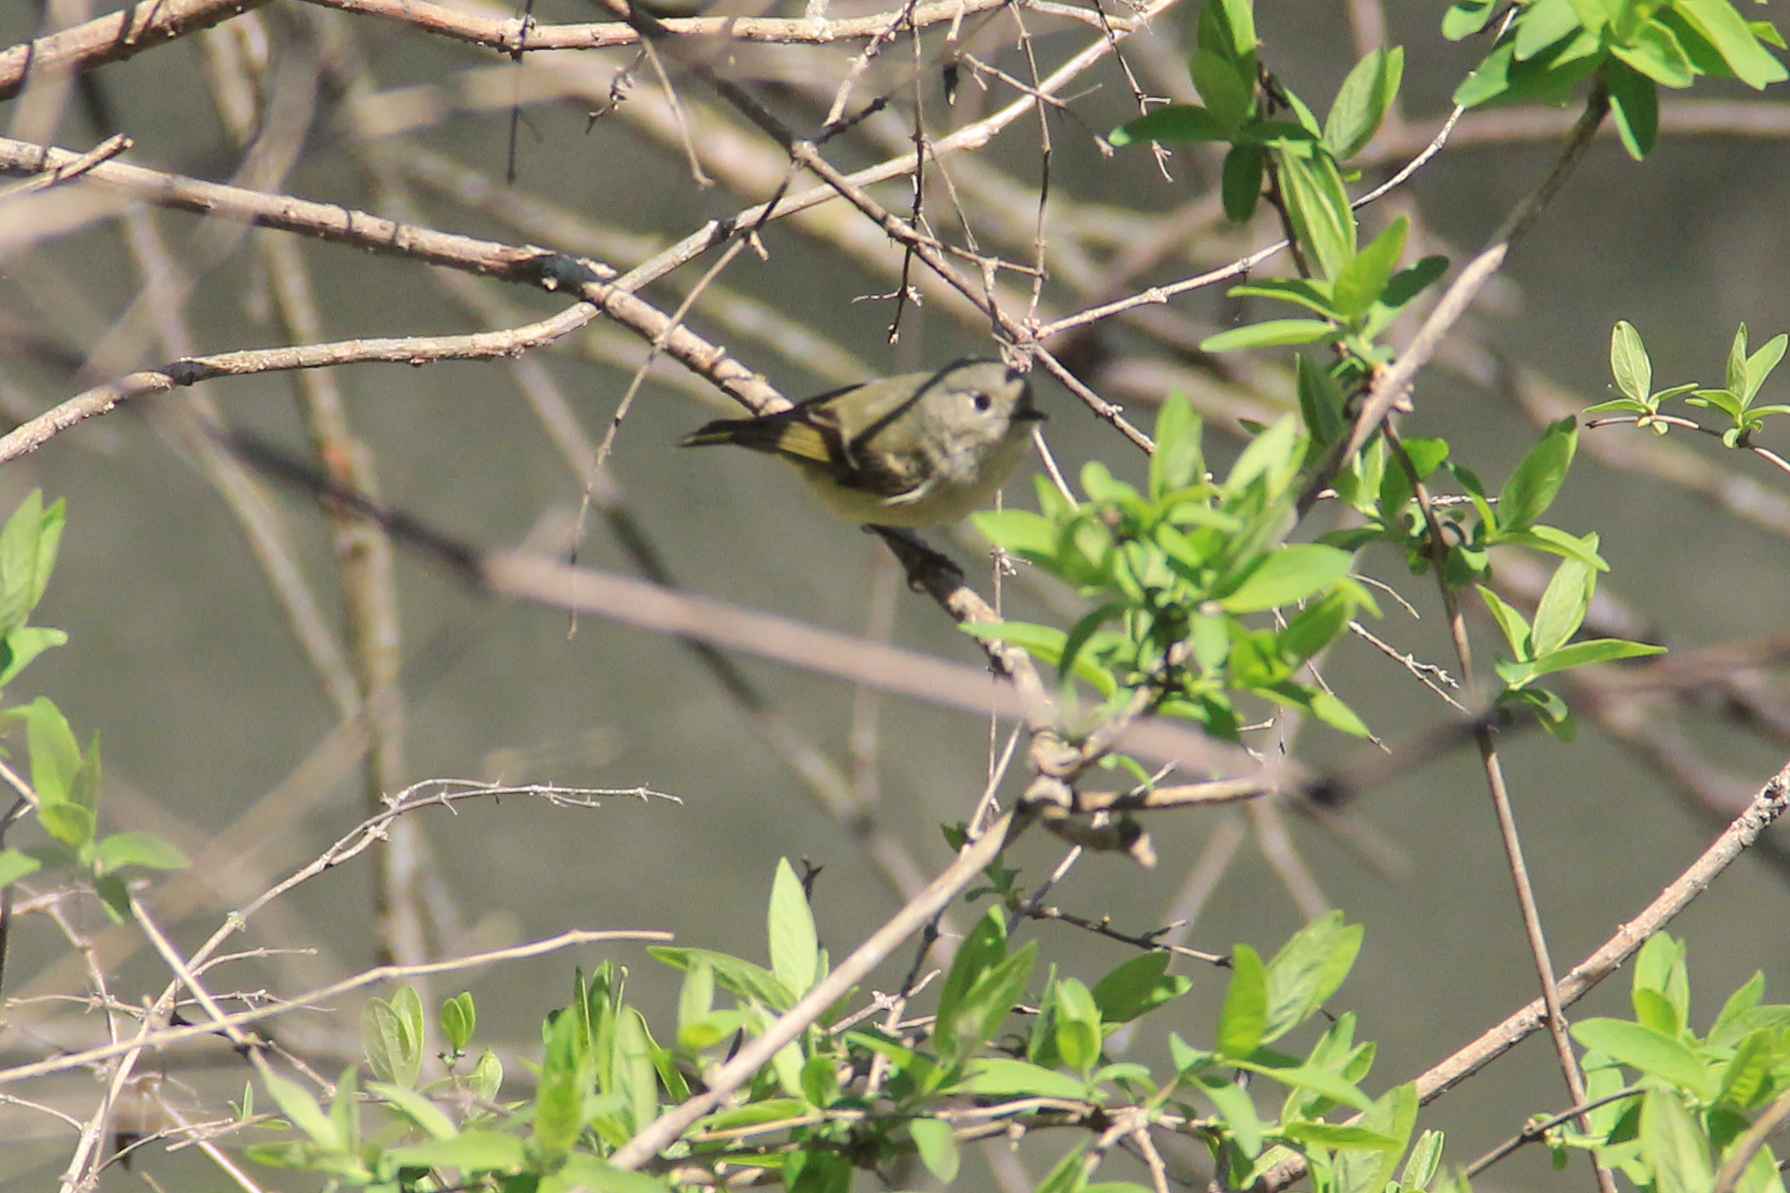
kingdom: Animalia
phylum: Chordata
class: Aves
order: Passeriformes
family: Regulidae
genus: Regulus
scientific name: Regulus calendula
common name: Ruby-crowned kinglet
